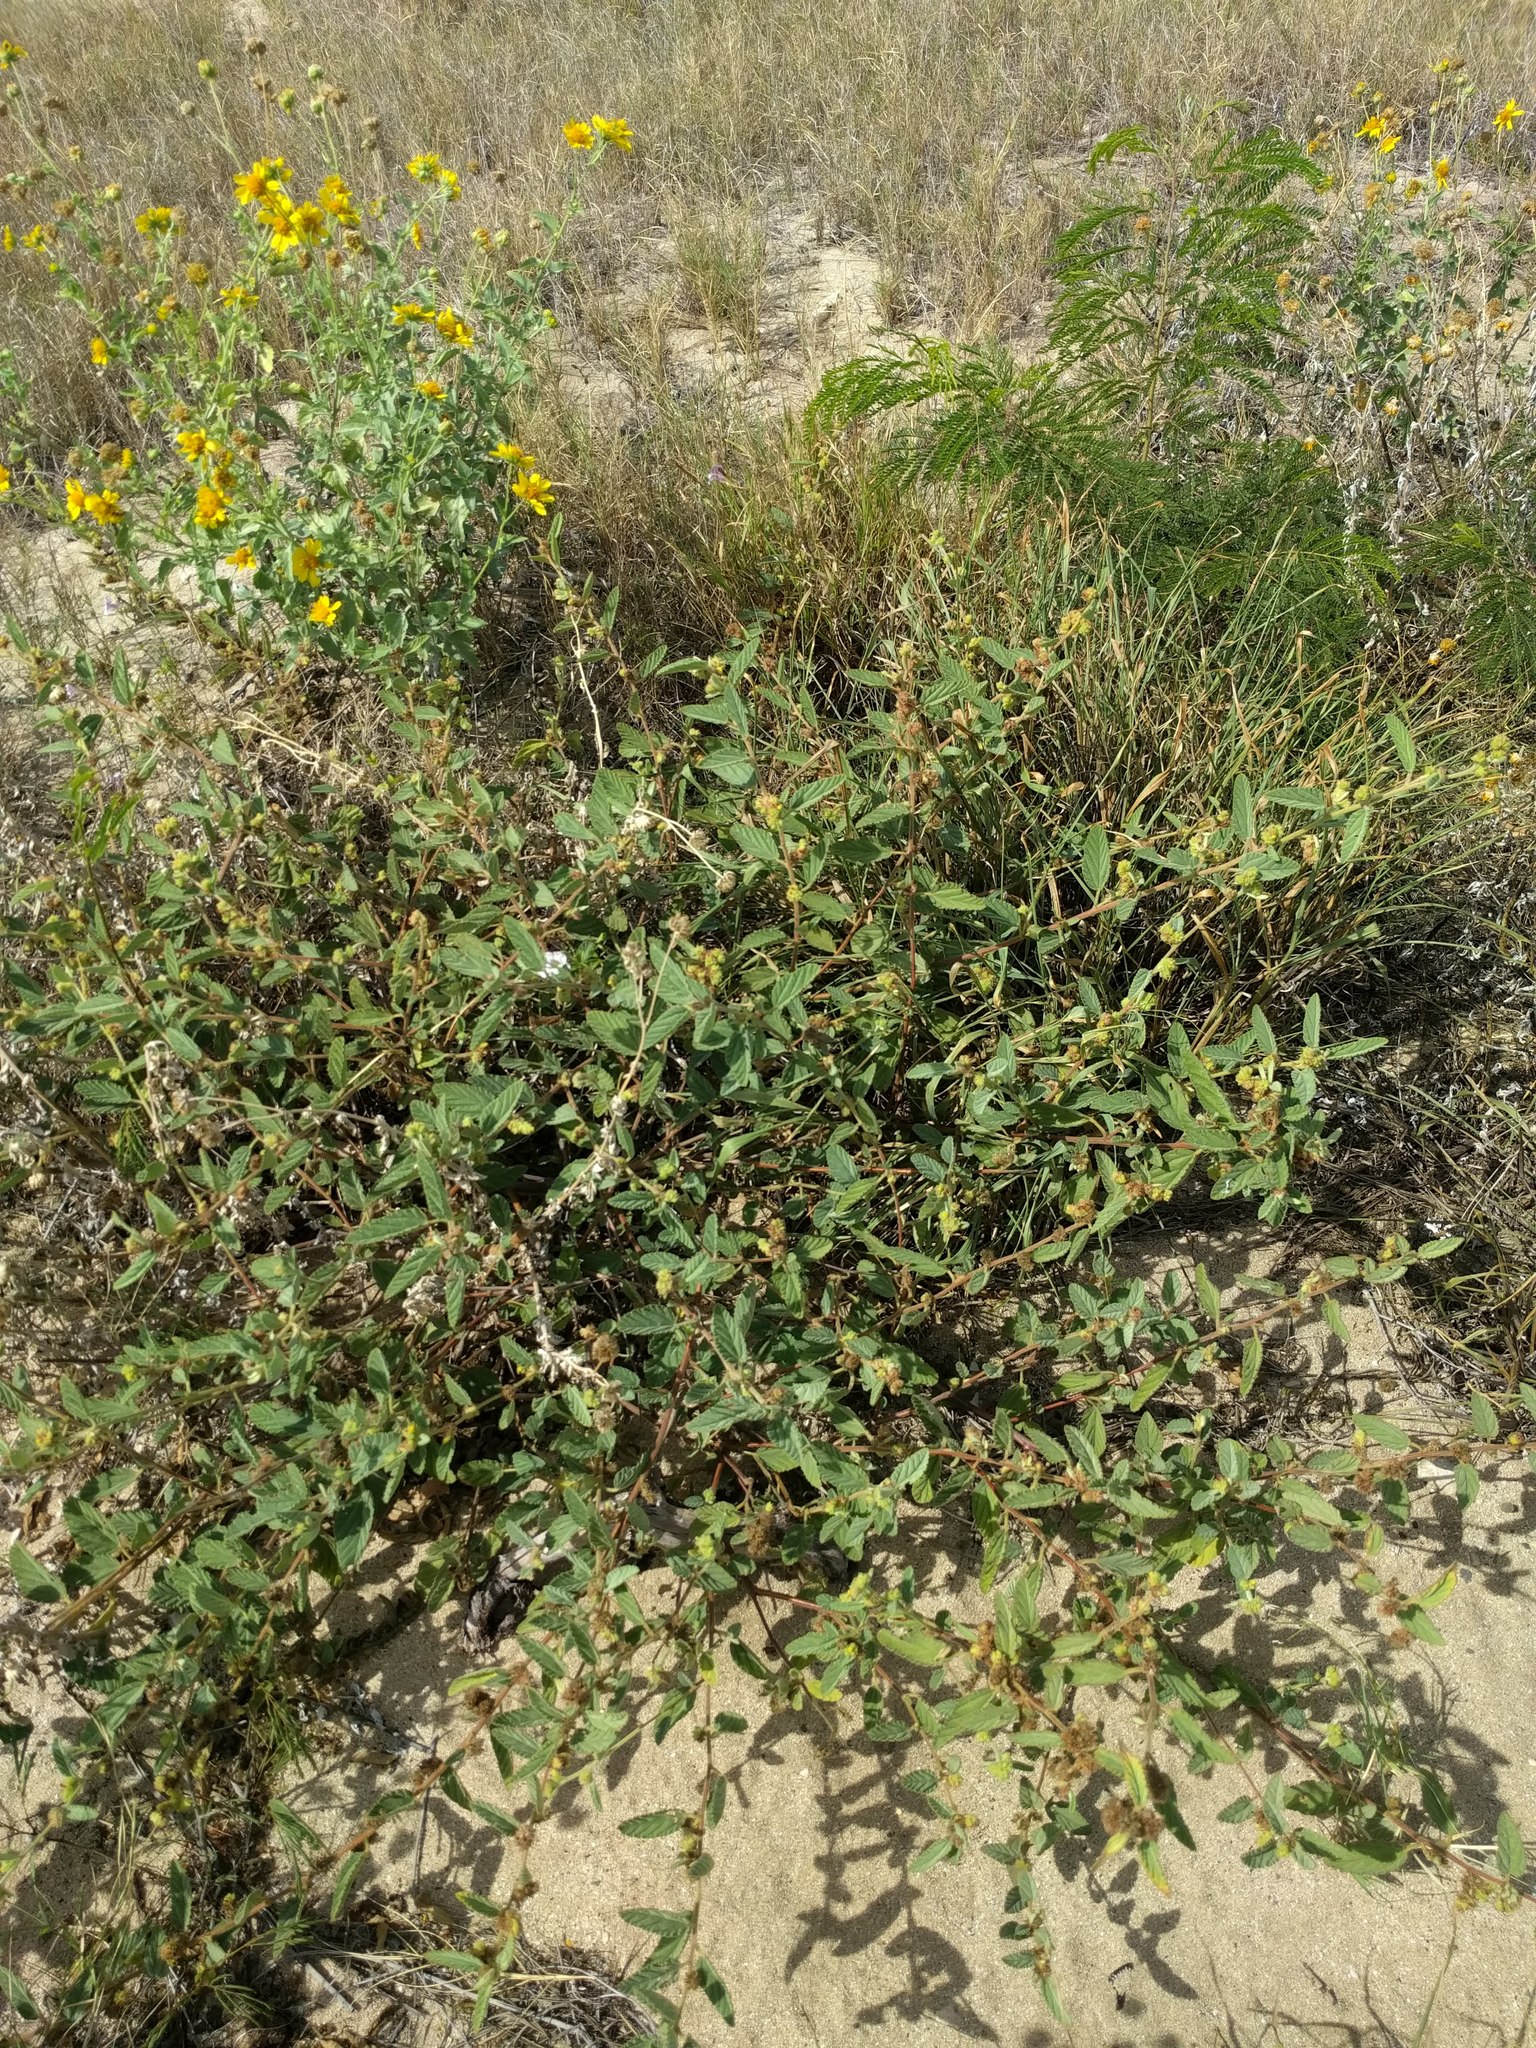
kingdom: Plantae
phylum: Tracheophyta
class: Magnoliopsida
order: Malvales
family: Malvaceae
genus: Waltheria
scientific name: Waltheria indica
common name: Leather-coat
